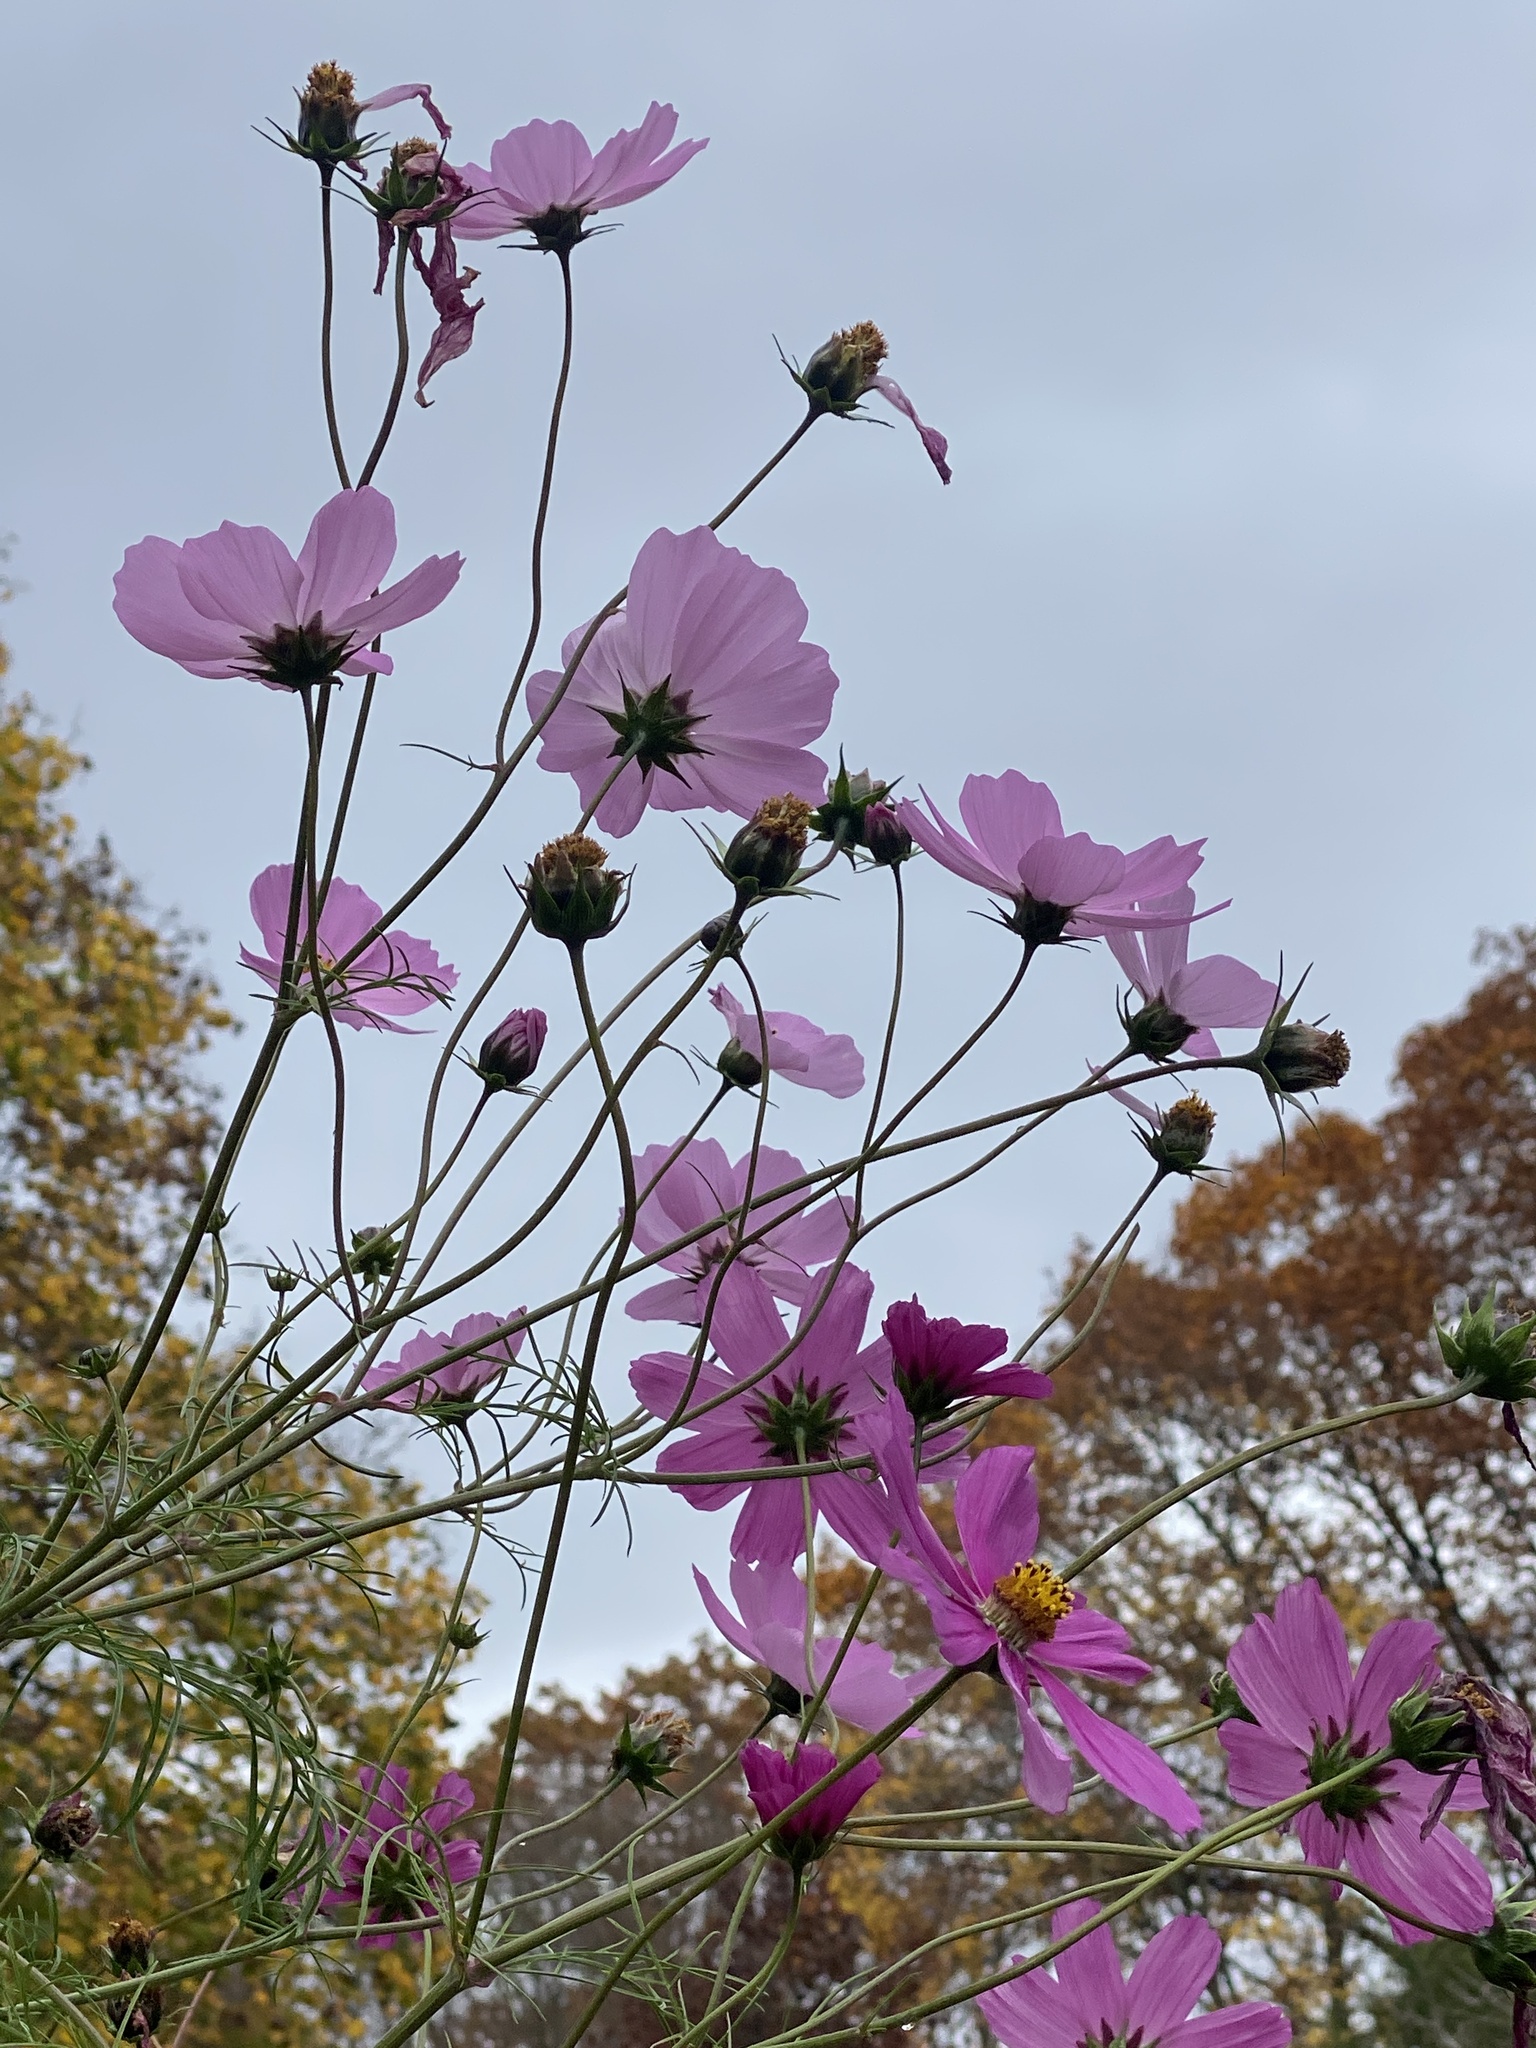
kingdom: Plantae
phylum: Tracheophyta
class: Magnoliopsida
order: Asterales
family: Asteraceae
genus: Cosmos
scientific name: Cosmos bipinnatus
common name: Garden cosmos
